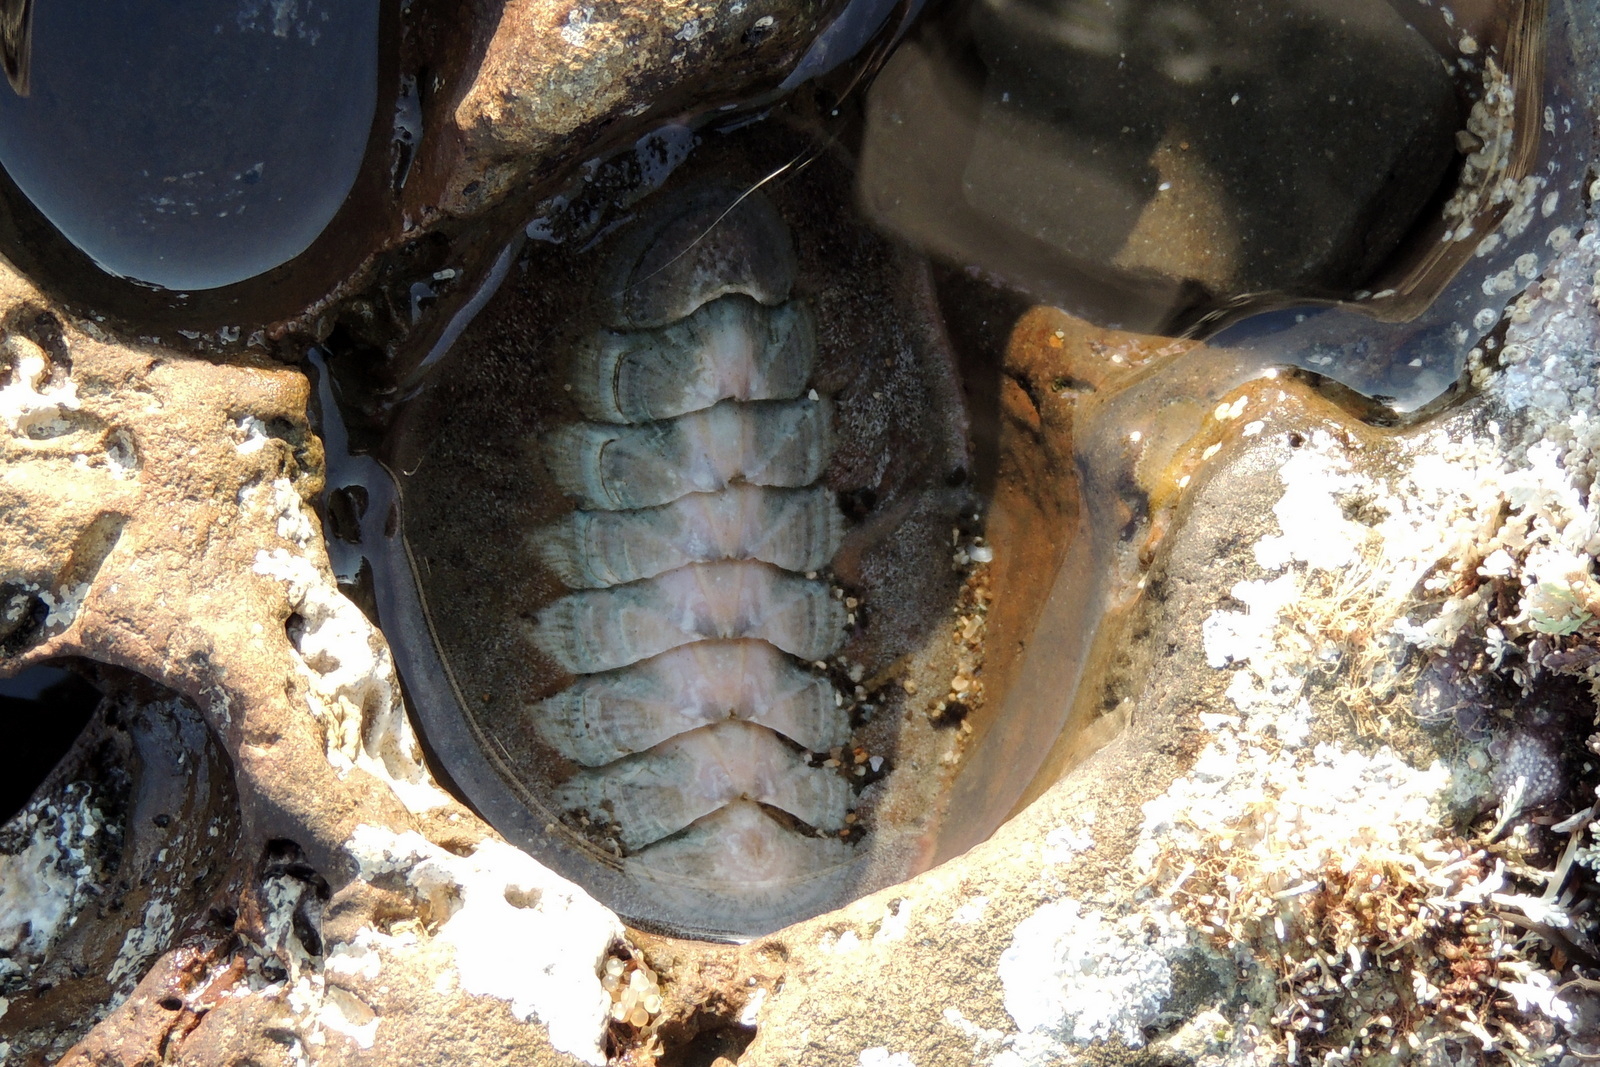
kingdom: Animalia
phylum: Mollusca
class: Polyplacophora
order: Chitonida
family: Ischnochitonidae
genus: Stenoplax
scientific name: Stenoplax conspicua
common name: Conspicuous chiton
